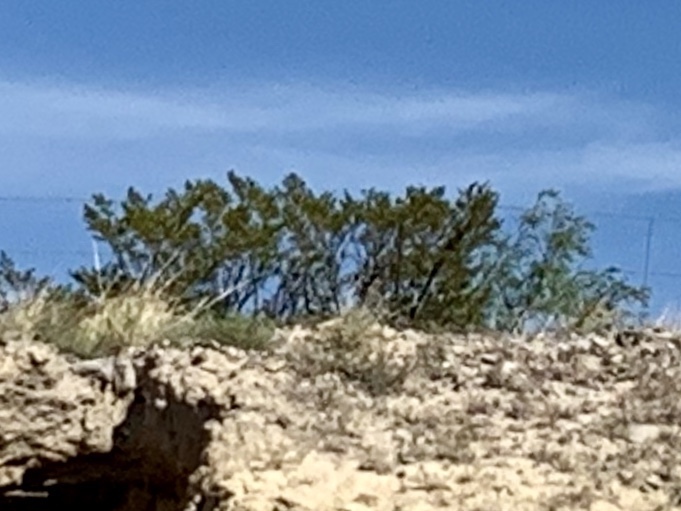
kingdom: Plantae
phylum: Tracheophyta
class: Magnoliopsida
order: Zygophyllales
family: Zygophyllaceae
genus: Larrea
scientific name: Larrea tridentata
